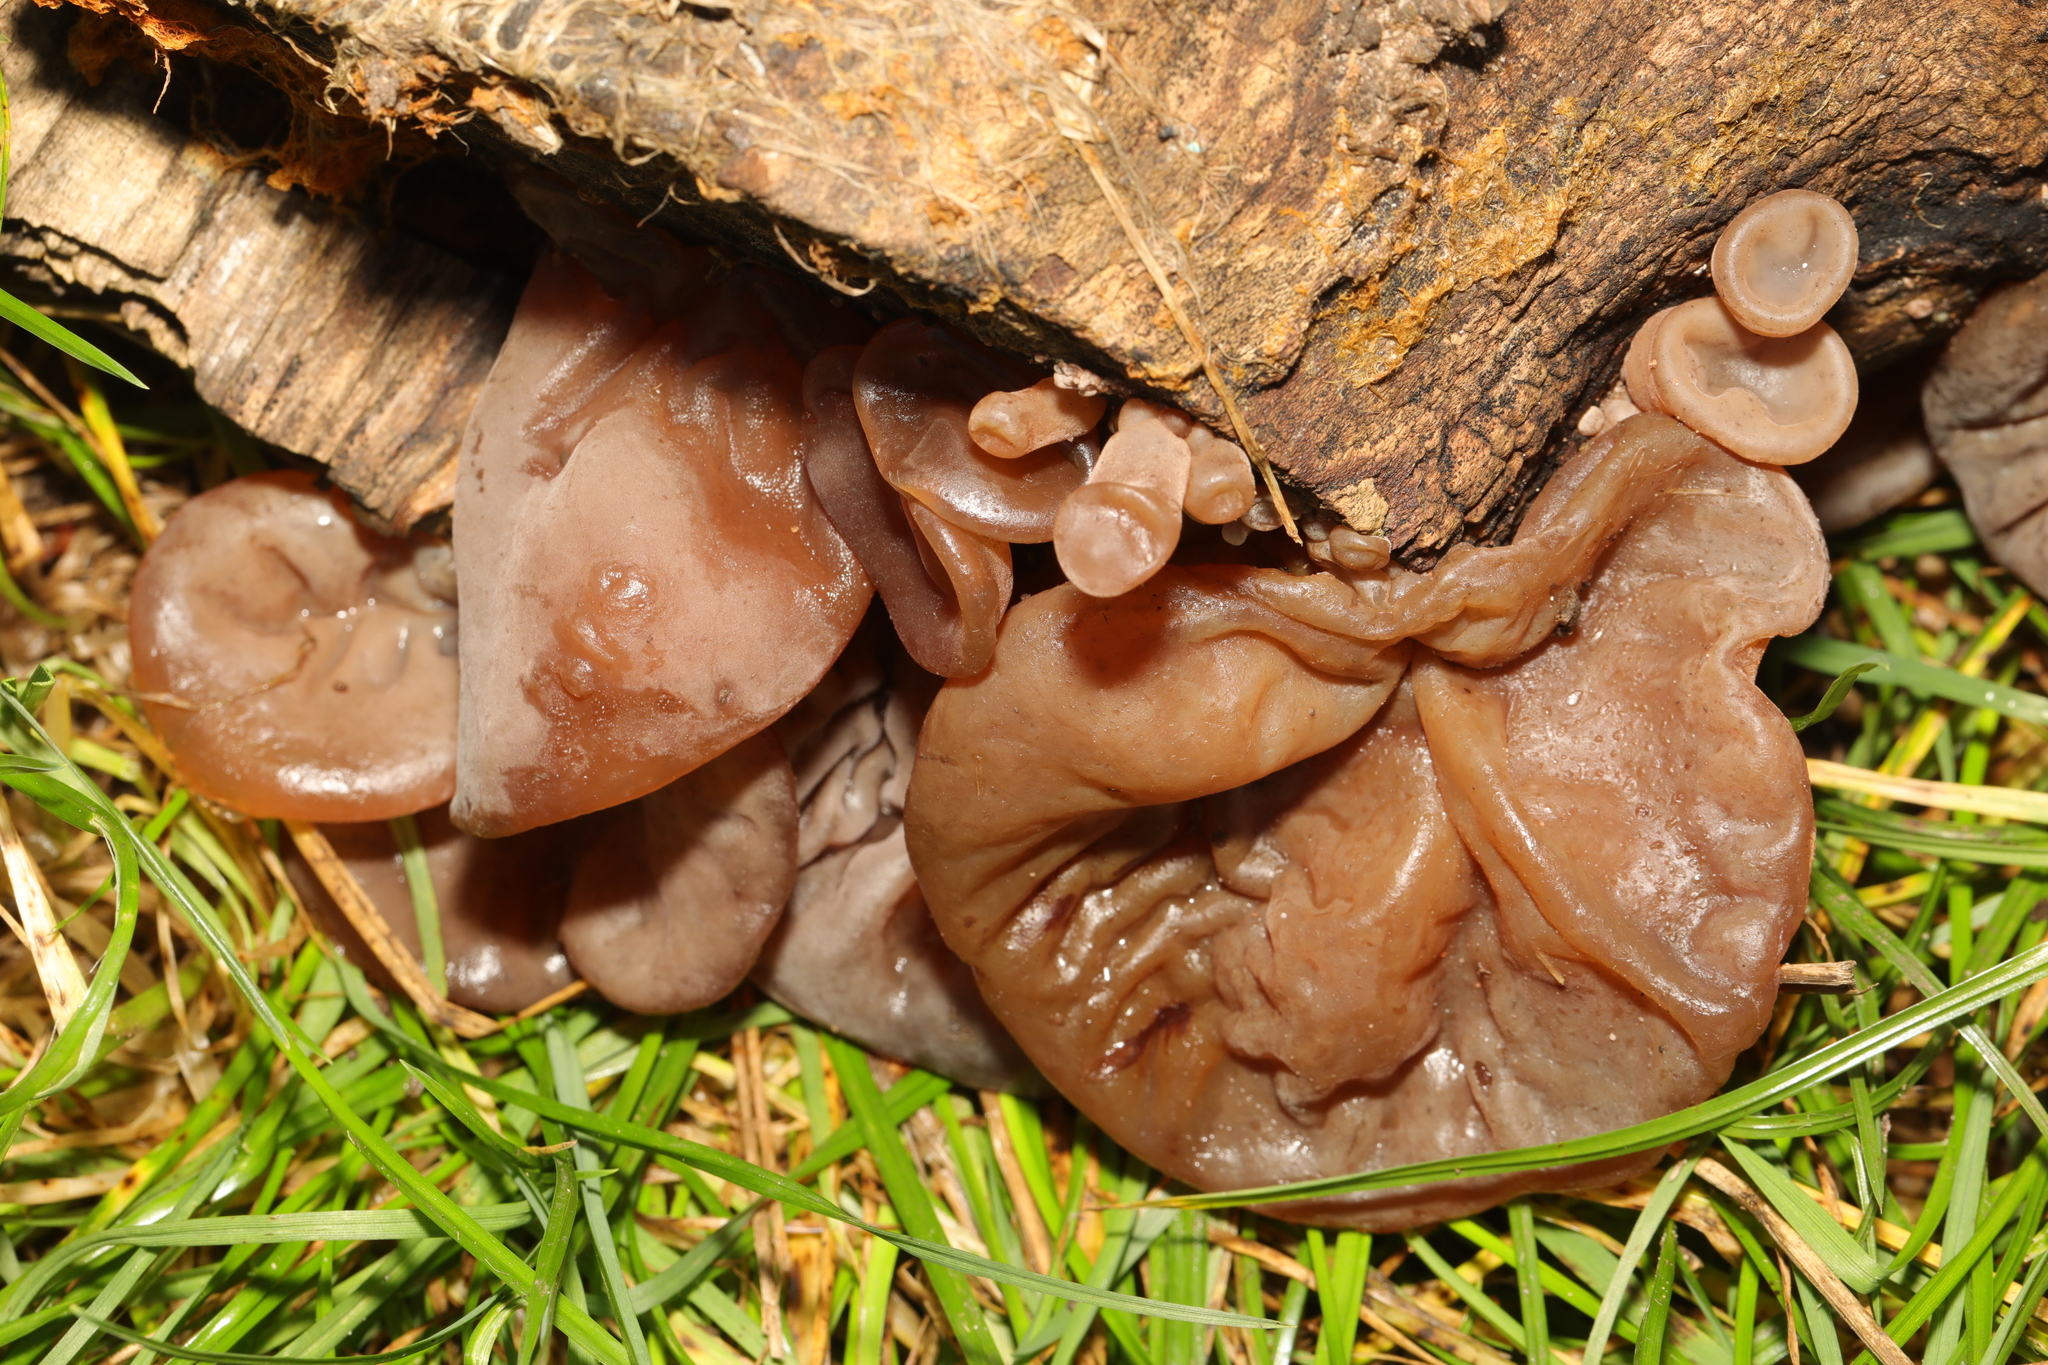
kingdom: Fungi
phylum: Basidiomycota
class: Agaricomycetes
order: Auriculariales
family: Auriculariaceae
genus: Auricularia
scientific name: Auricularia auricula-judae
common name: Jelly ear
